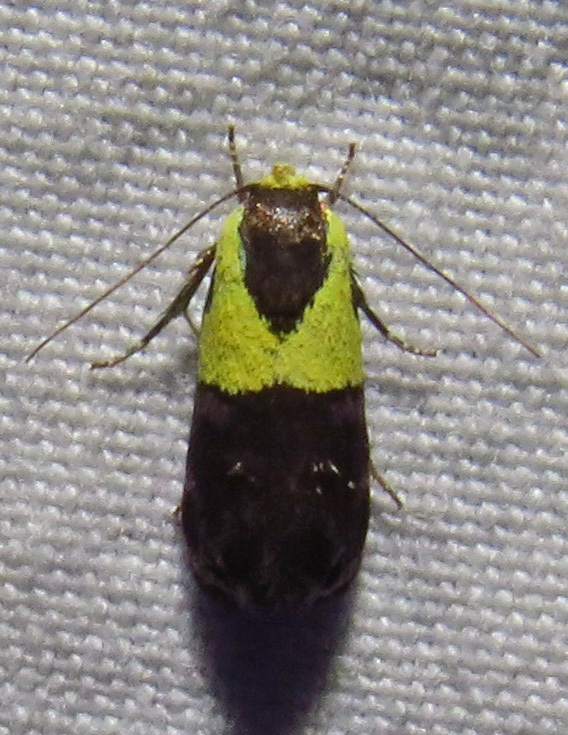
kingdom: Animalia
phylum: Arthropoda
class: Insecta
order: Lepidoptera
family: Depressariidae
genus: Rectiostoma
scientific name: Rectiostoma xanthobasis
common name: Yellow-vested moth
